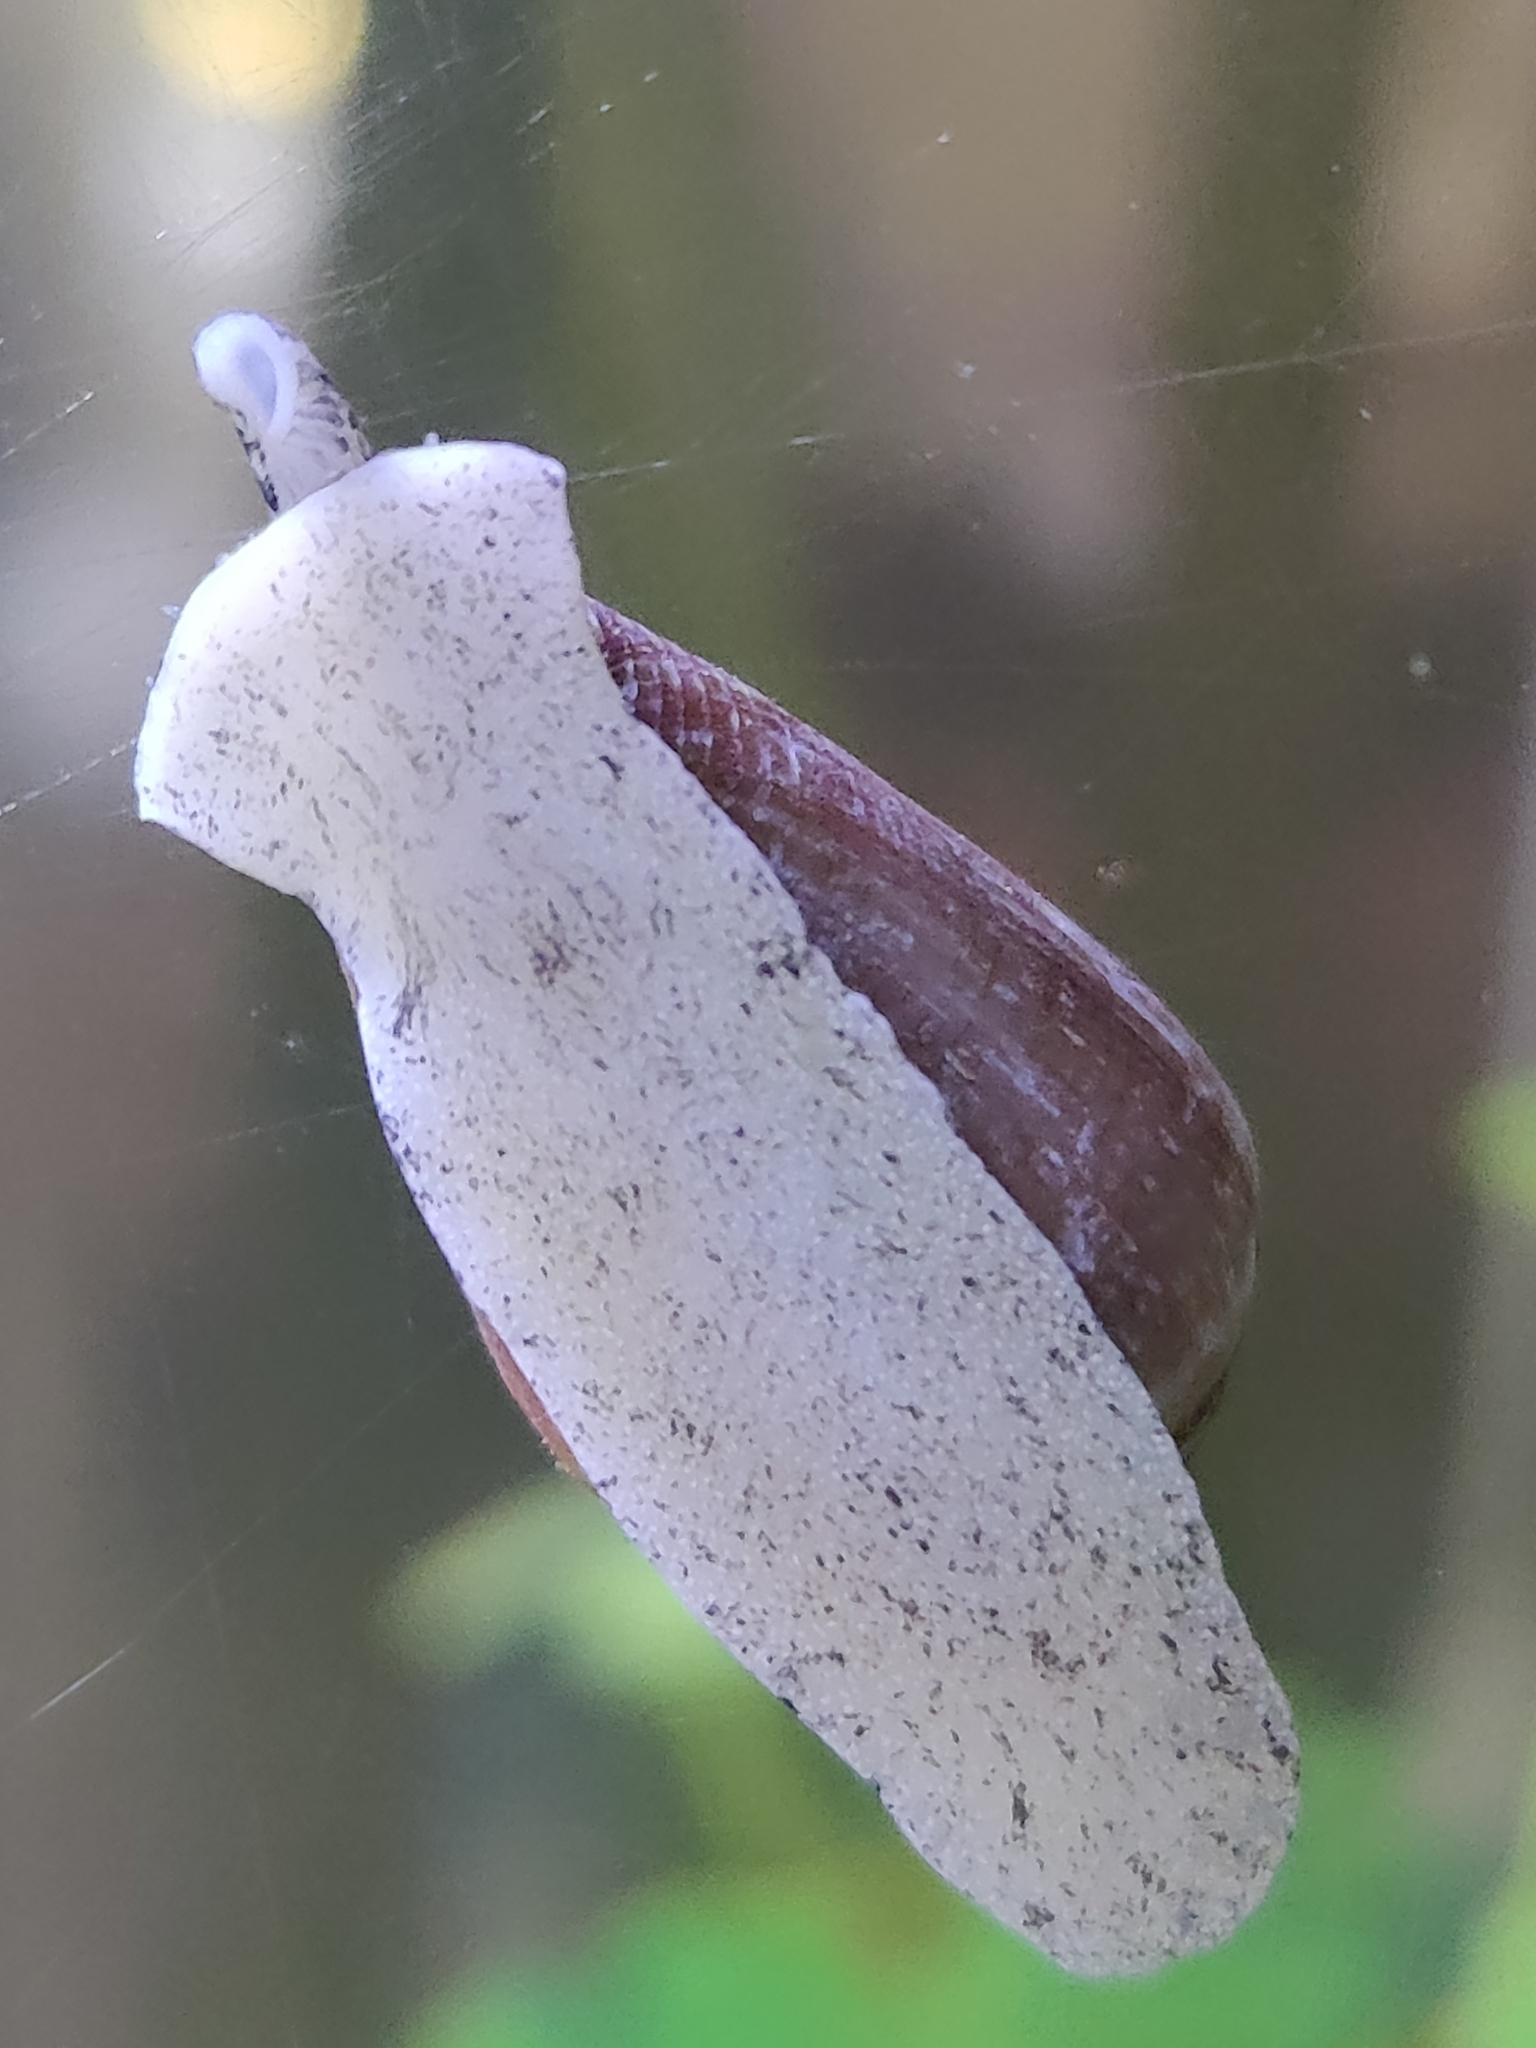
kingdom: Animalia
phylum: Mollusca
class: Gastropoda
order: Neogastropoda
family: Conidae
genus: Californiconus
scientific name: Californiconus californicus
